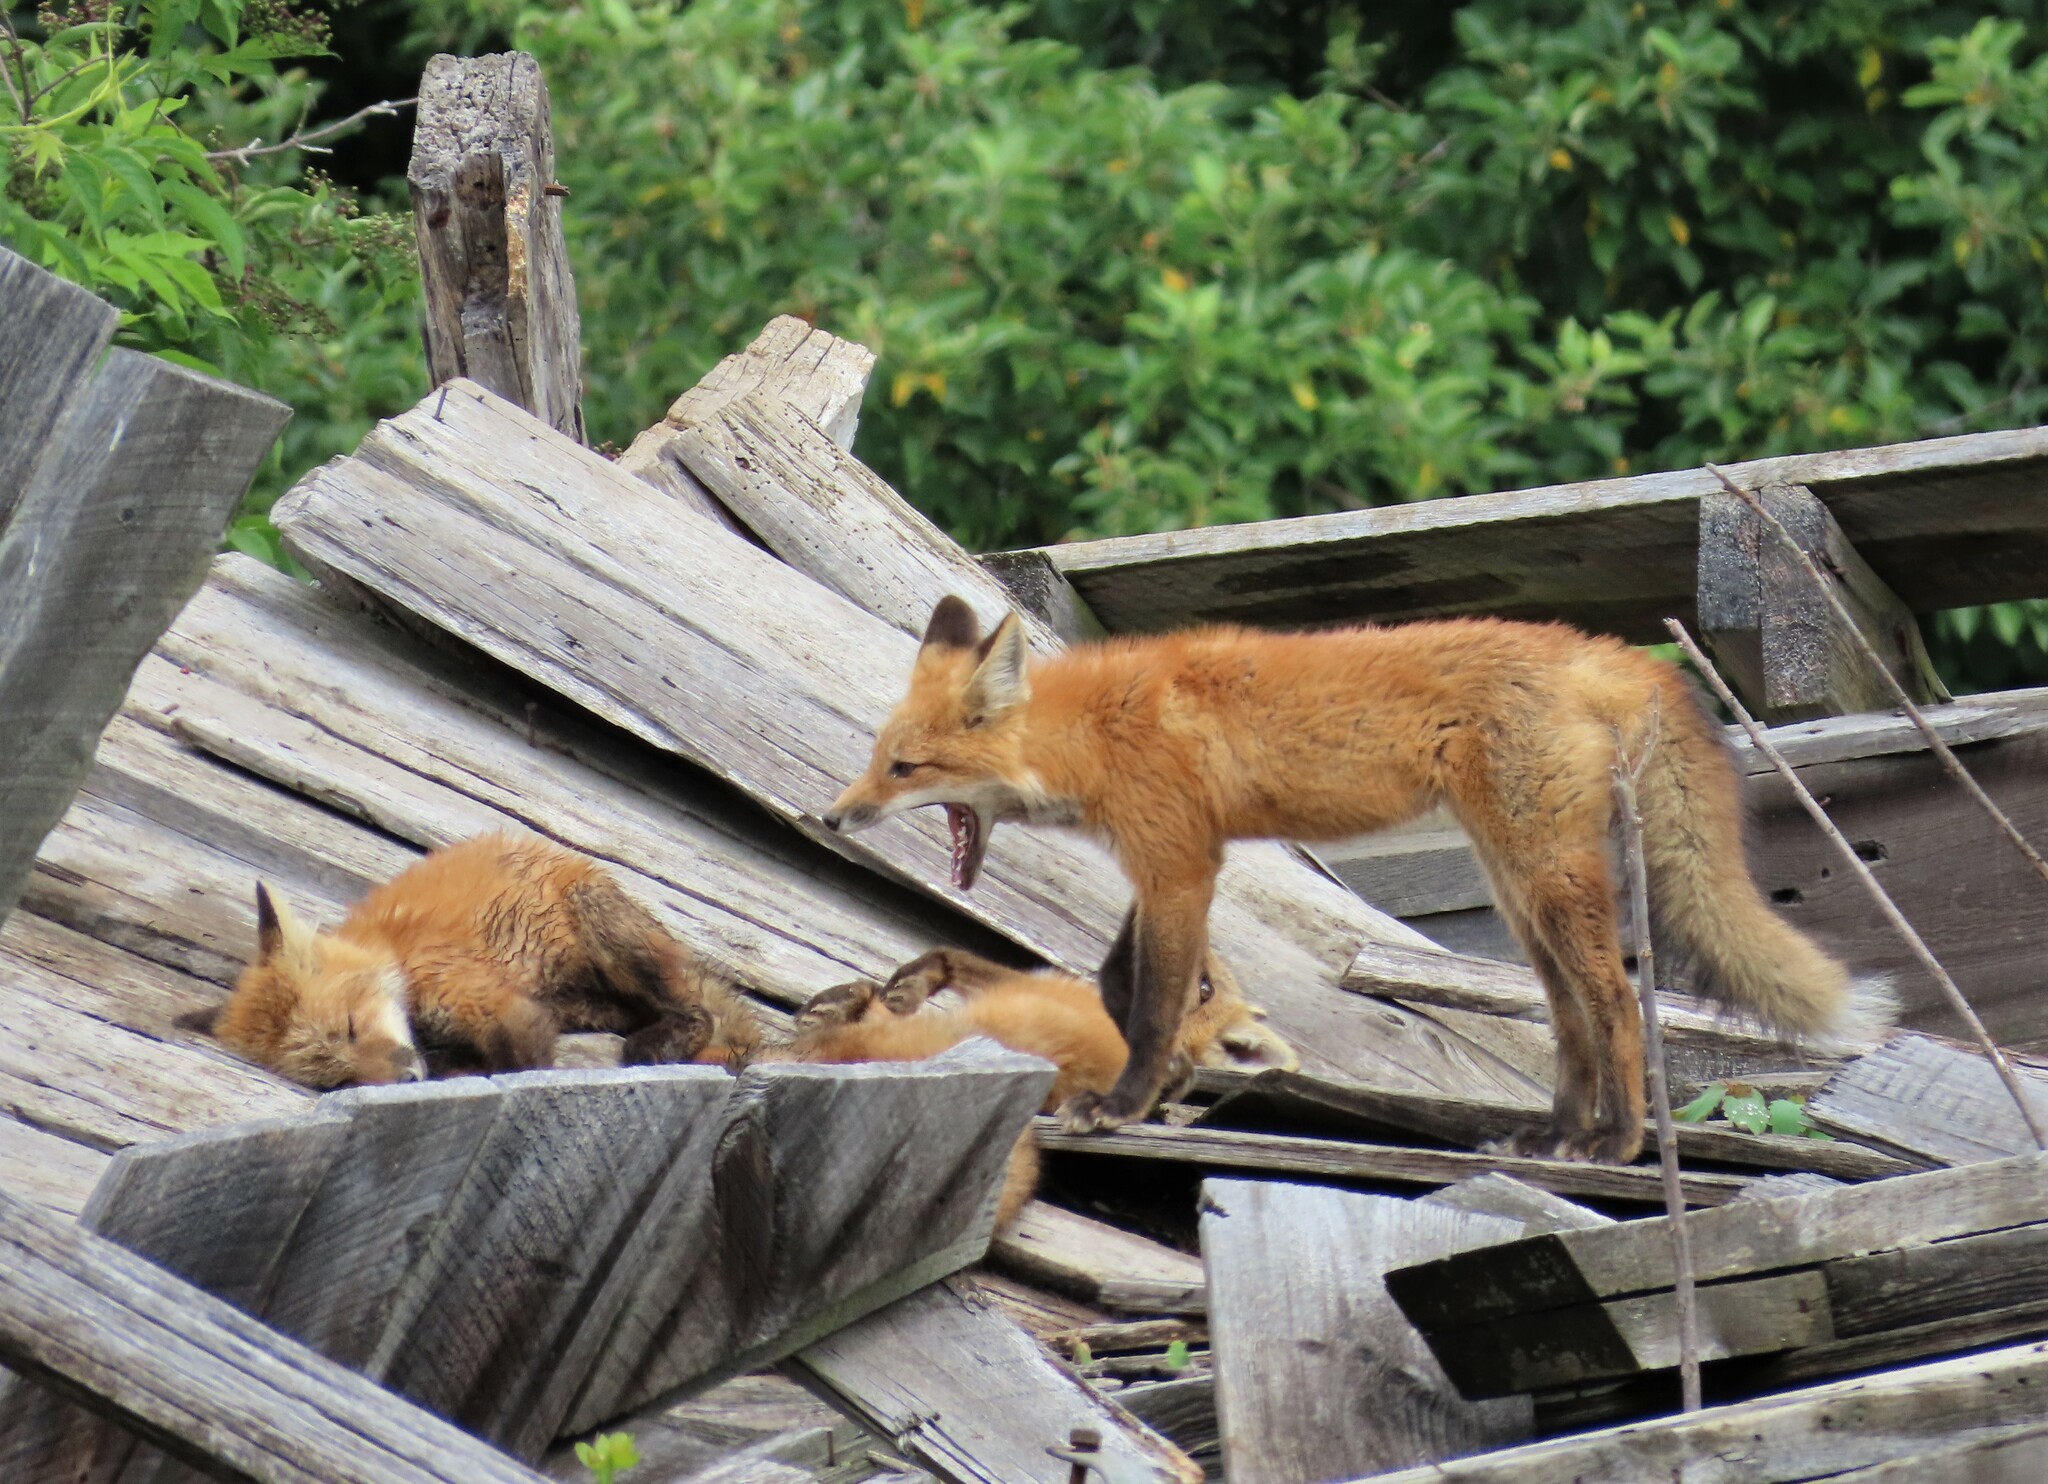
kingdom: Animalia
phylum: Chordata
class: Mammalia
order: Carnivora
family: Canidae
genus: Vulpes
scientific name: Vulpes vulpes
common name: Red fox
